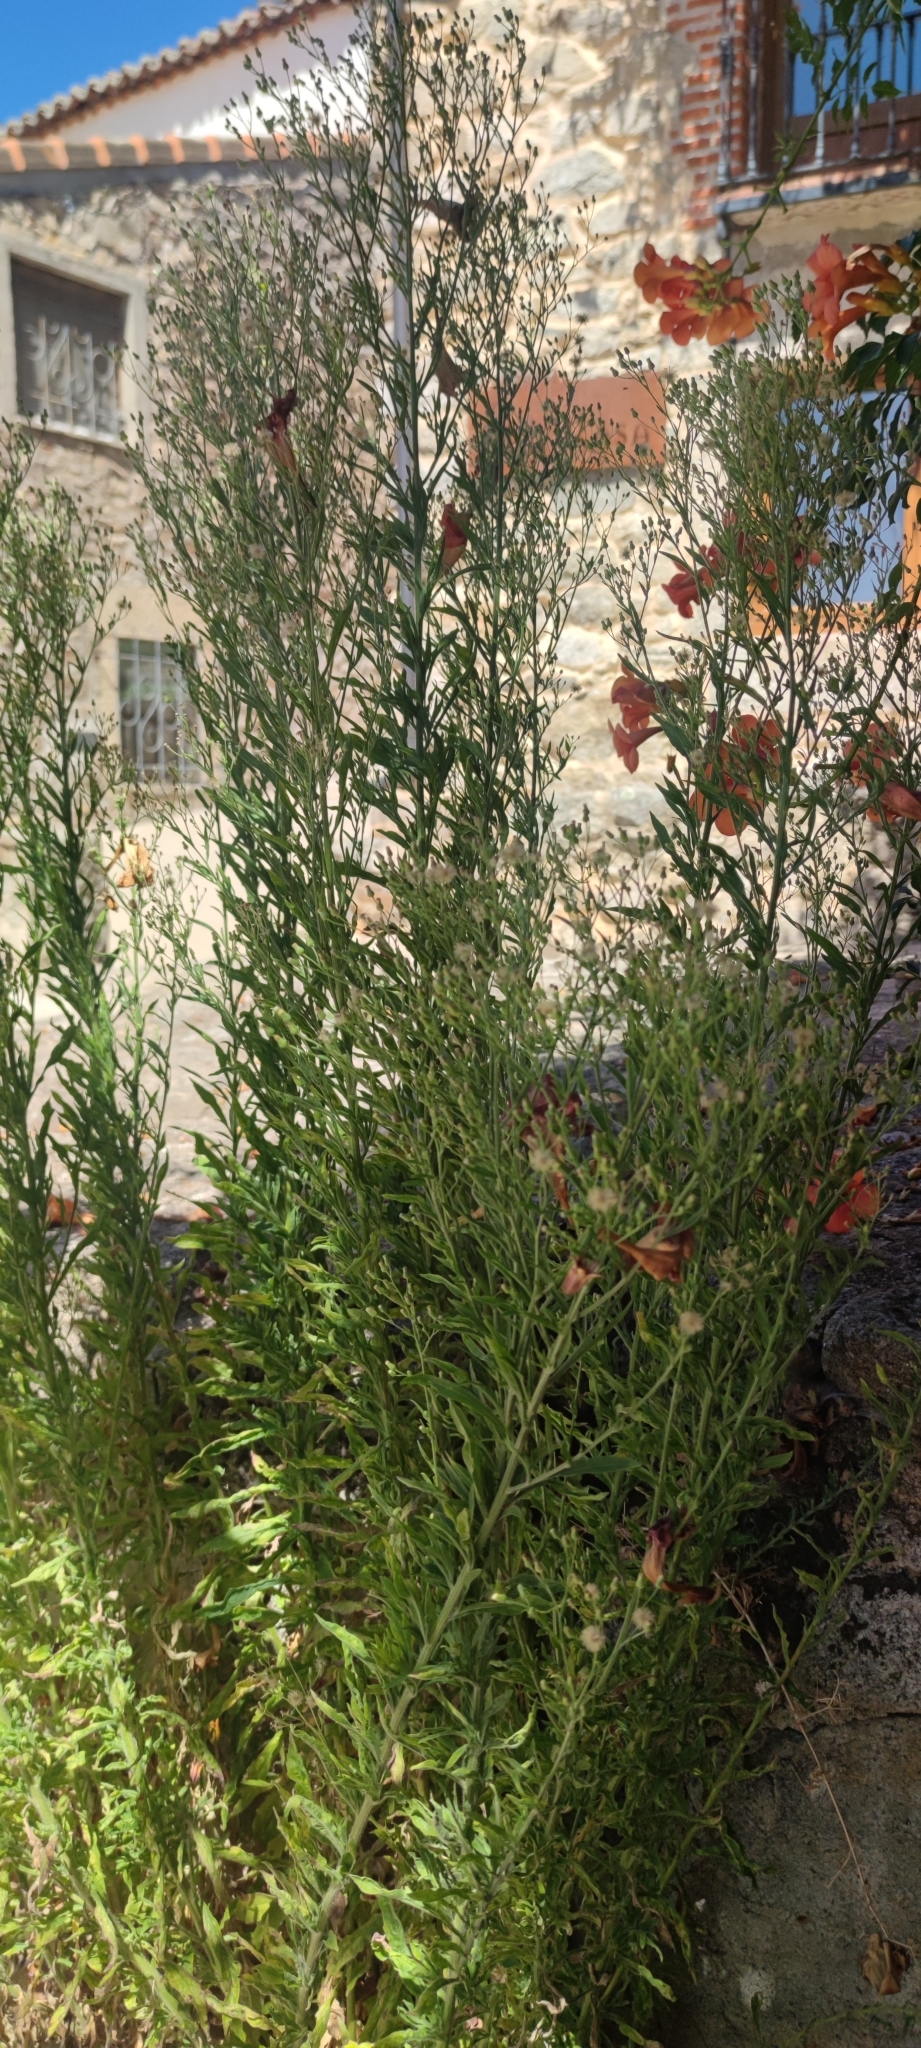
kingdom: Plantae
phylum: Tracheophyta
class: Magnoliopsida
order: Asterales
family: Asteraceae
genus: Erigeron
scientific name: Erigeron canadensis
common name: Canadian fleabane
